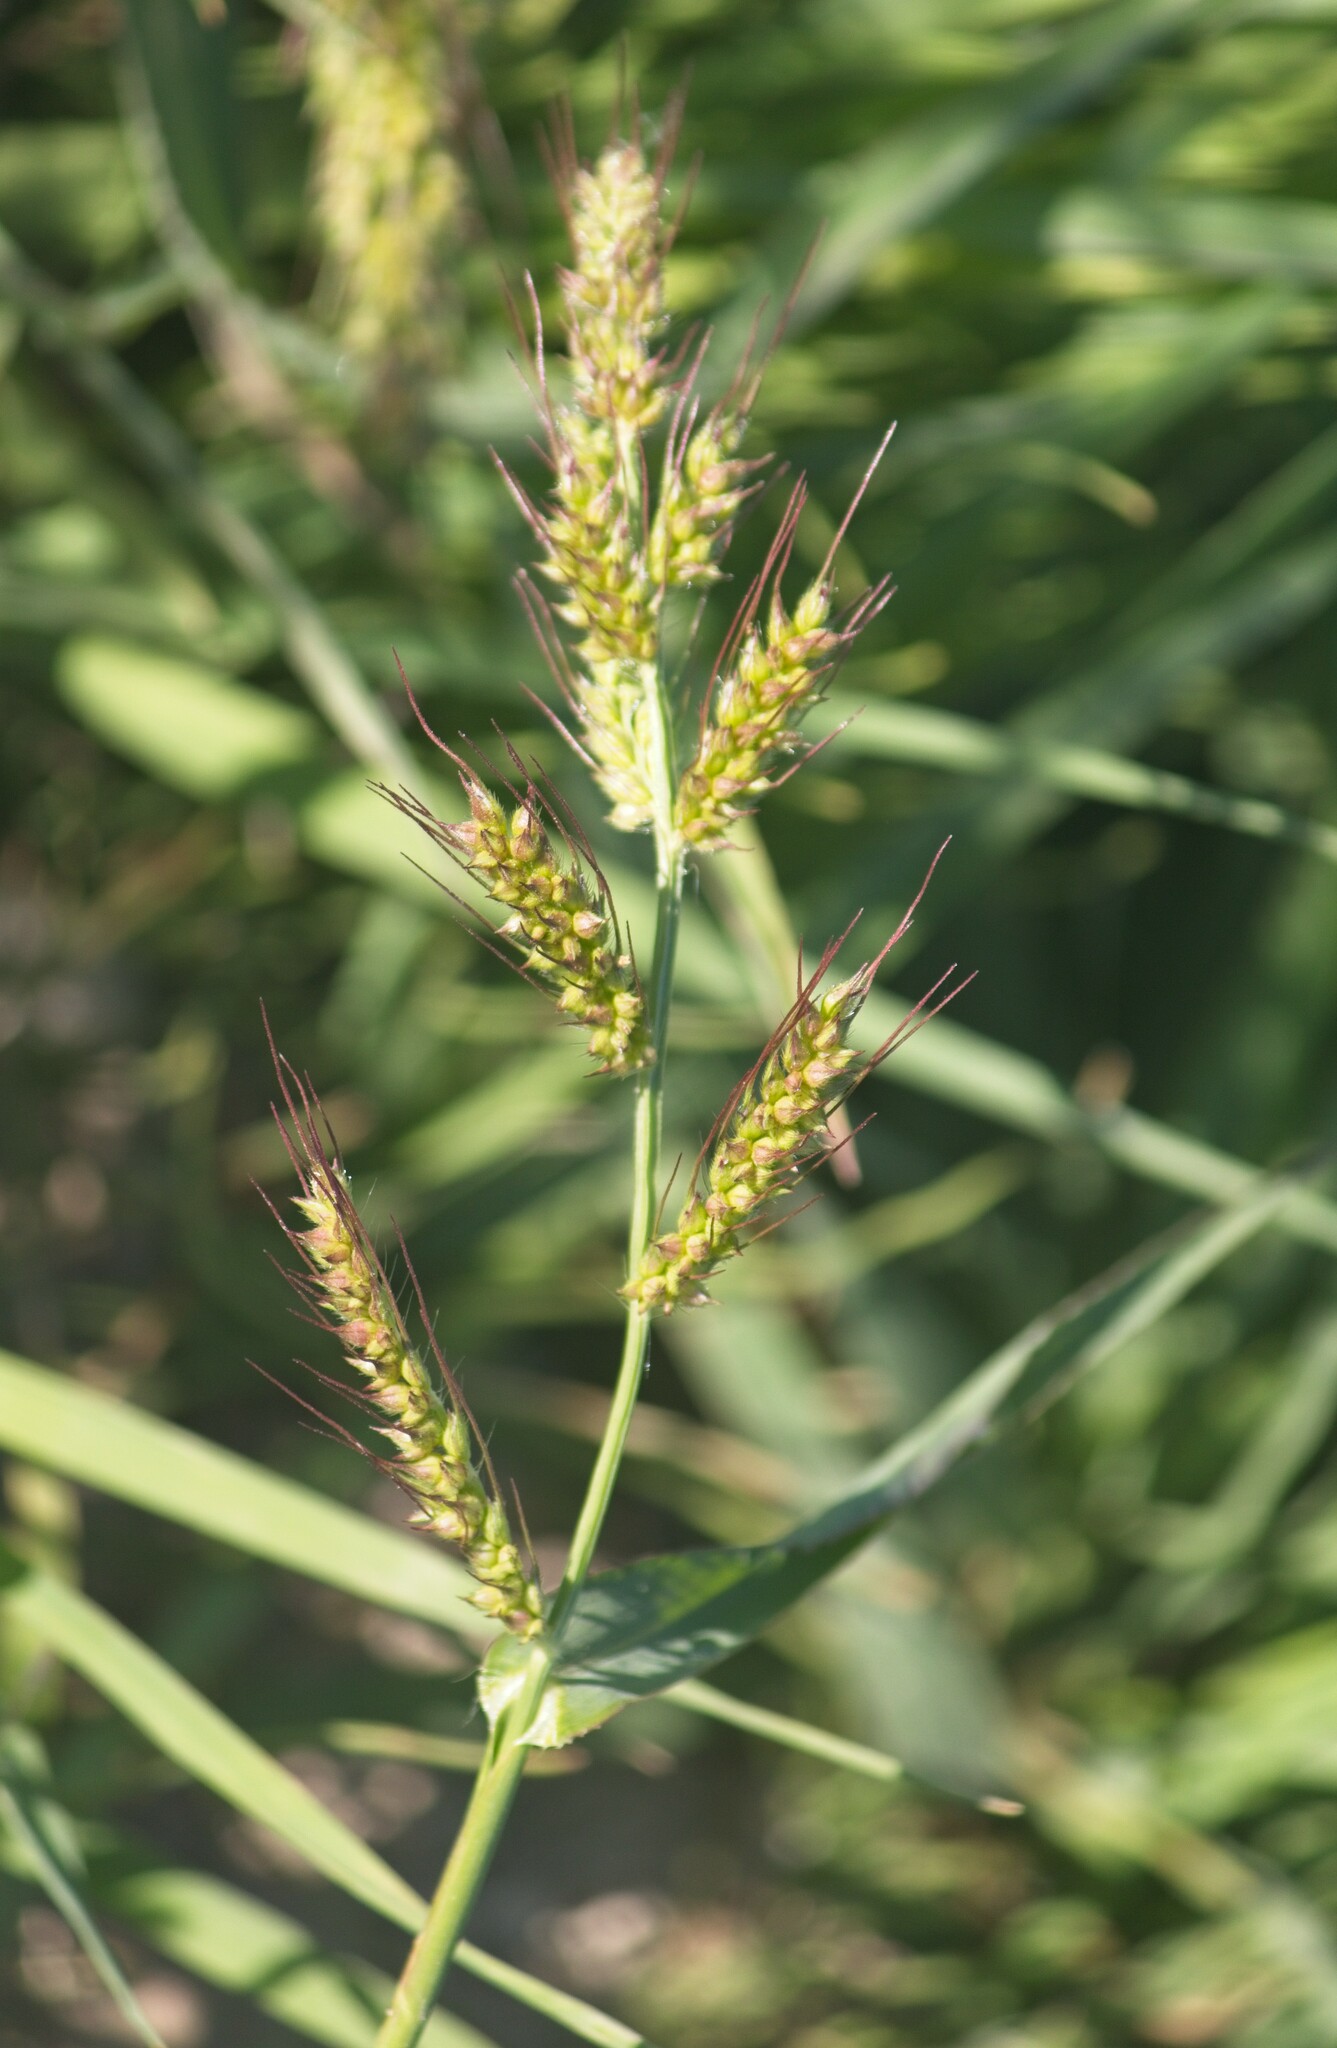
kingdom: Plantae
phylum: Tracheophyta
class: Liliopsida
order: Poales
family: Poaceae
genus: Echinochloa
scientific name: Echinochloa crus-galli
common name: Cockspur
